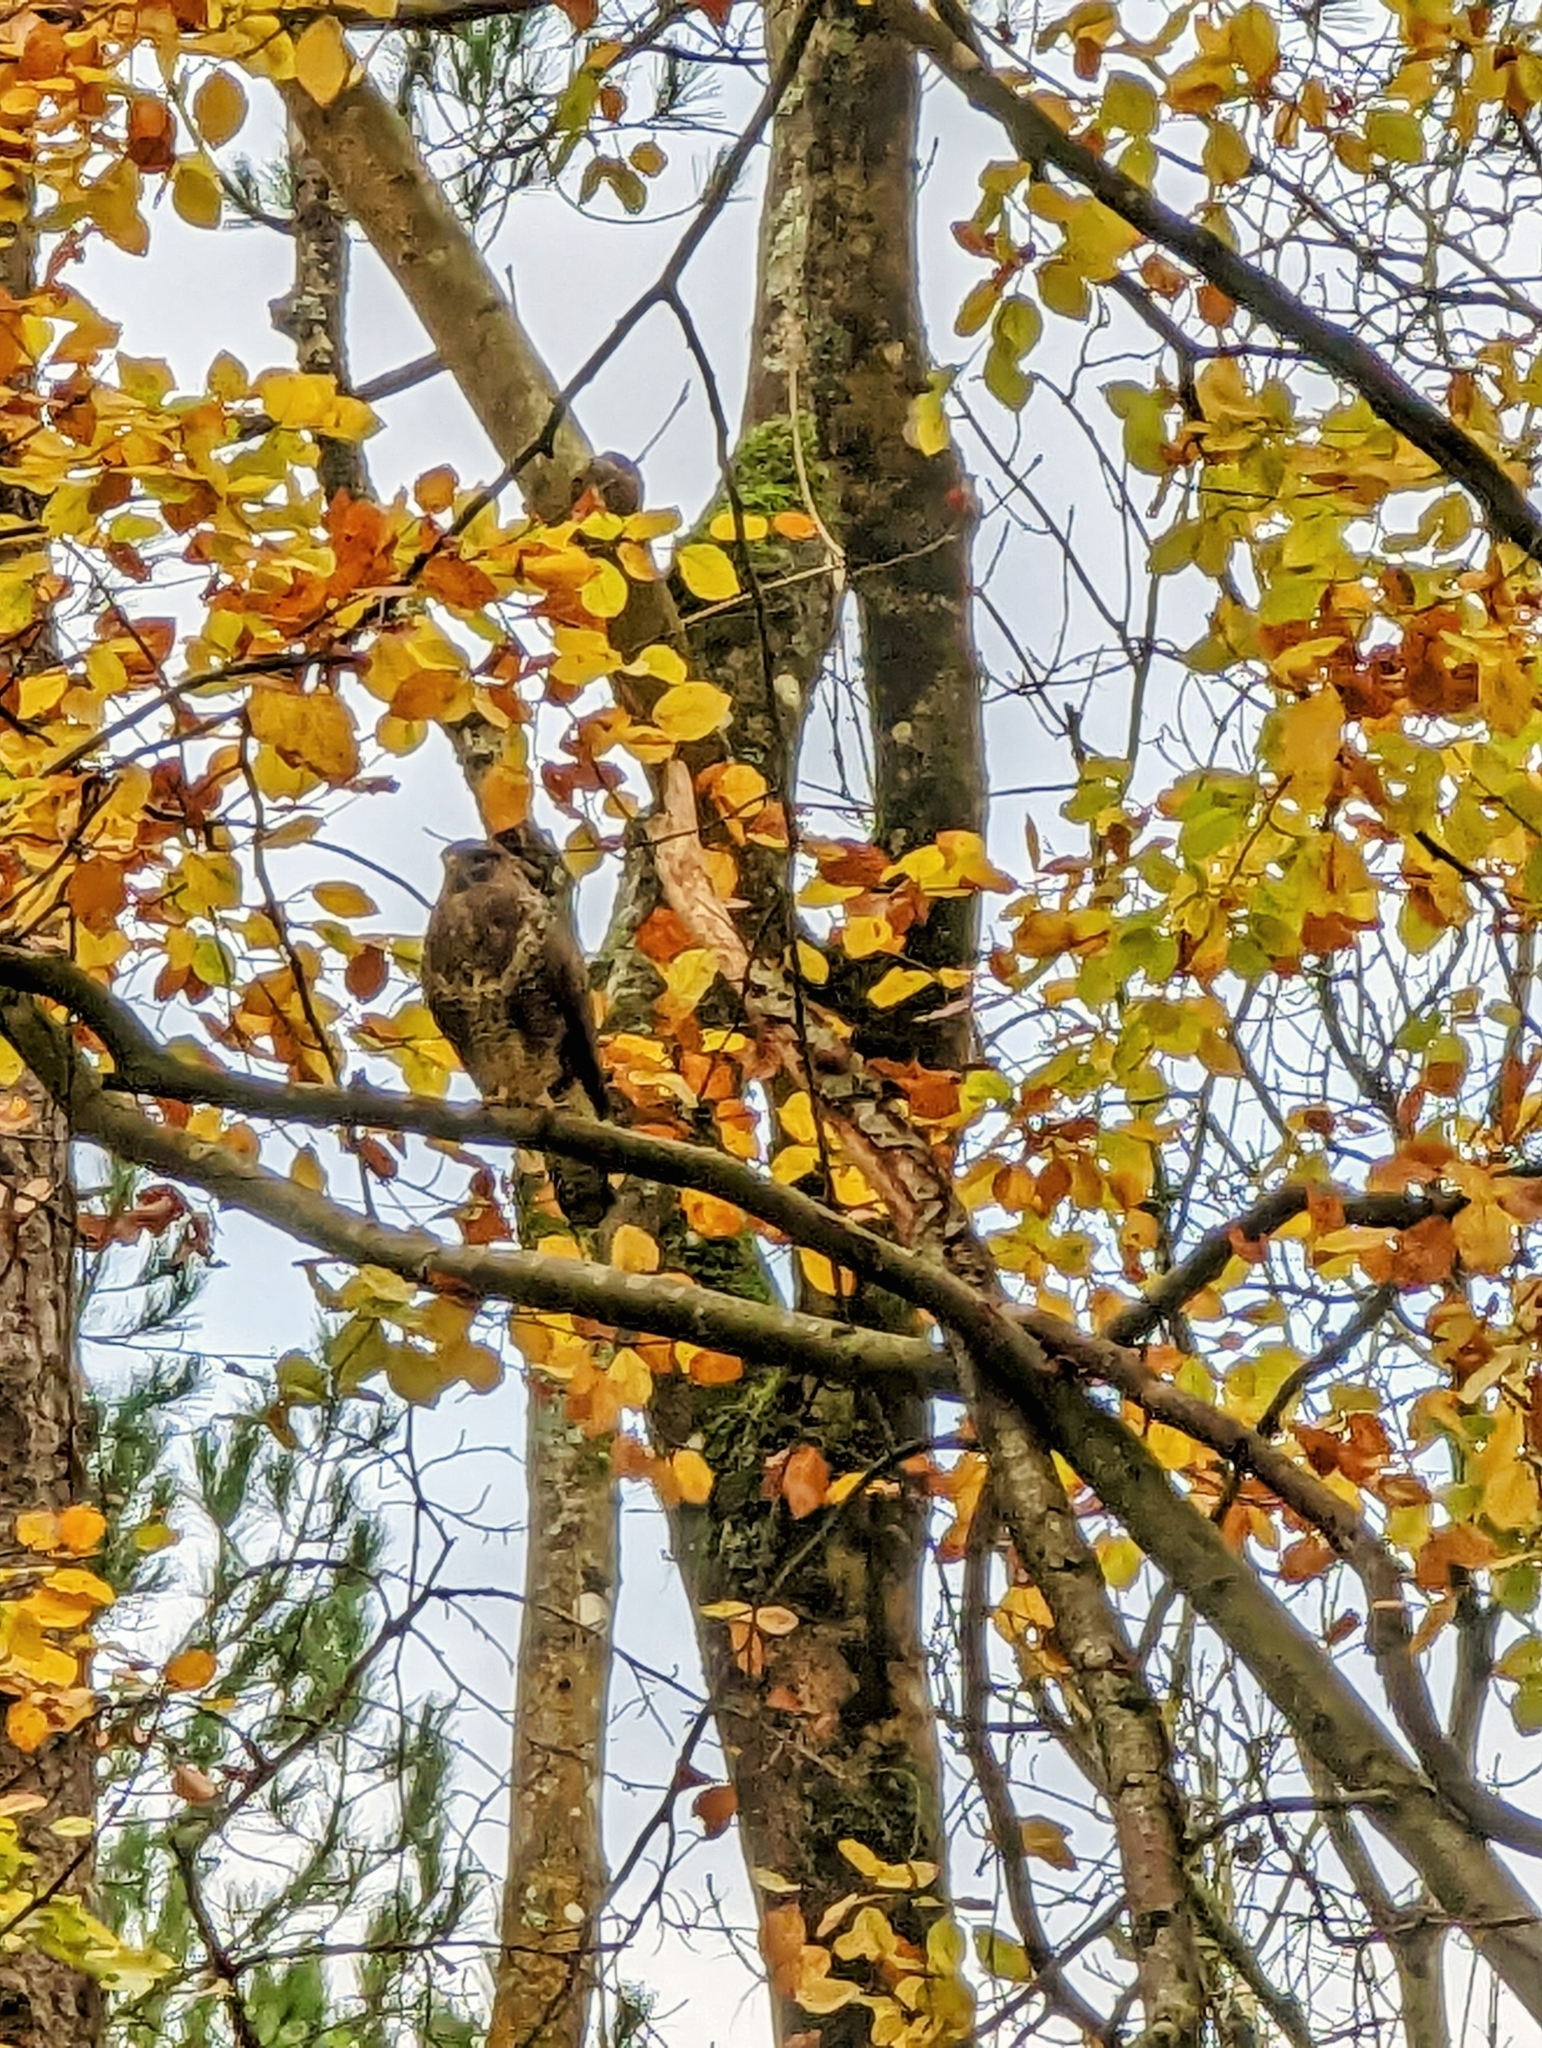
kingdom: Animalia
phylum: Chordata
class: Aves
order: Accipitriformes
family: Accipitridae
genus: Buteo
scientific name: Buteo buteo
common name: Common buzzard
